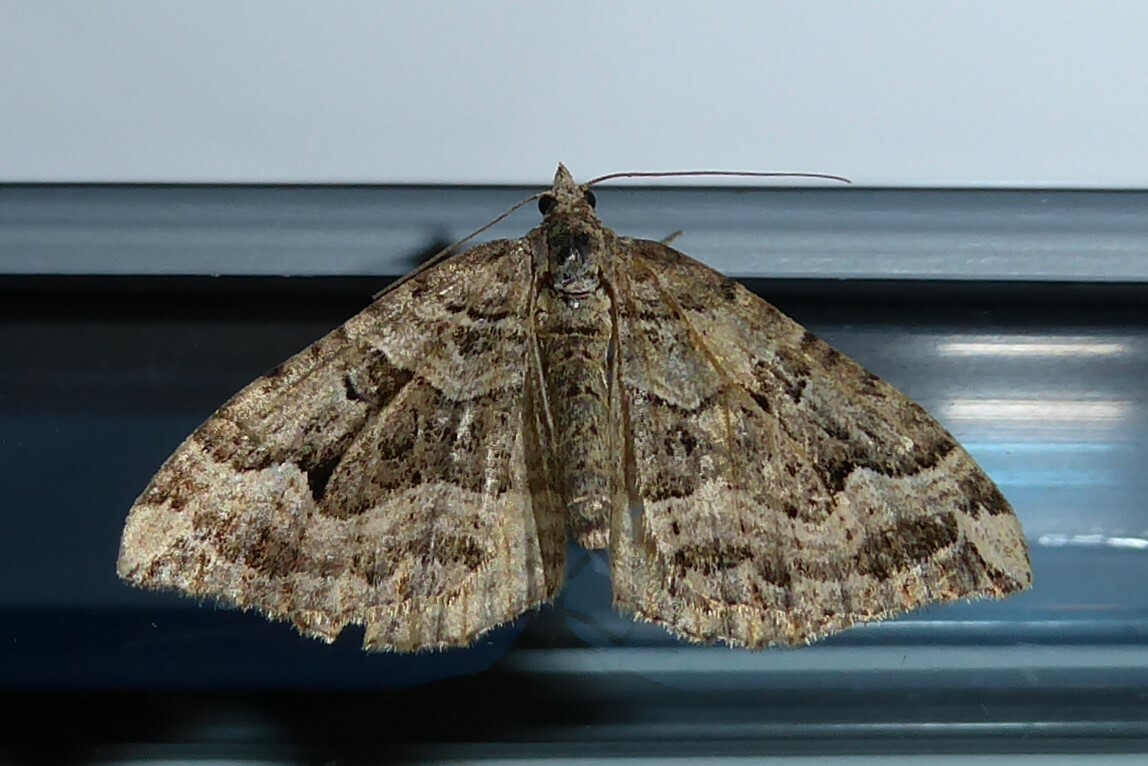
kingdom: Animalia
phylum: Arthropoda
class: Insecta
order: Lepidoptera
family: Geometridae
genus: Xanthorhoe
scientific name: Xanthorhoe semifissata
